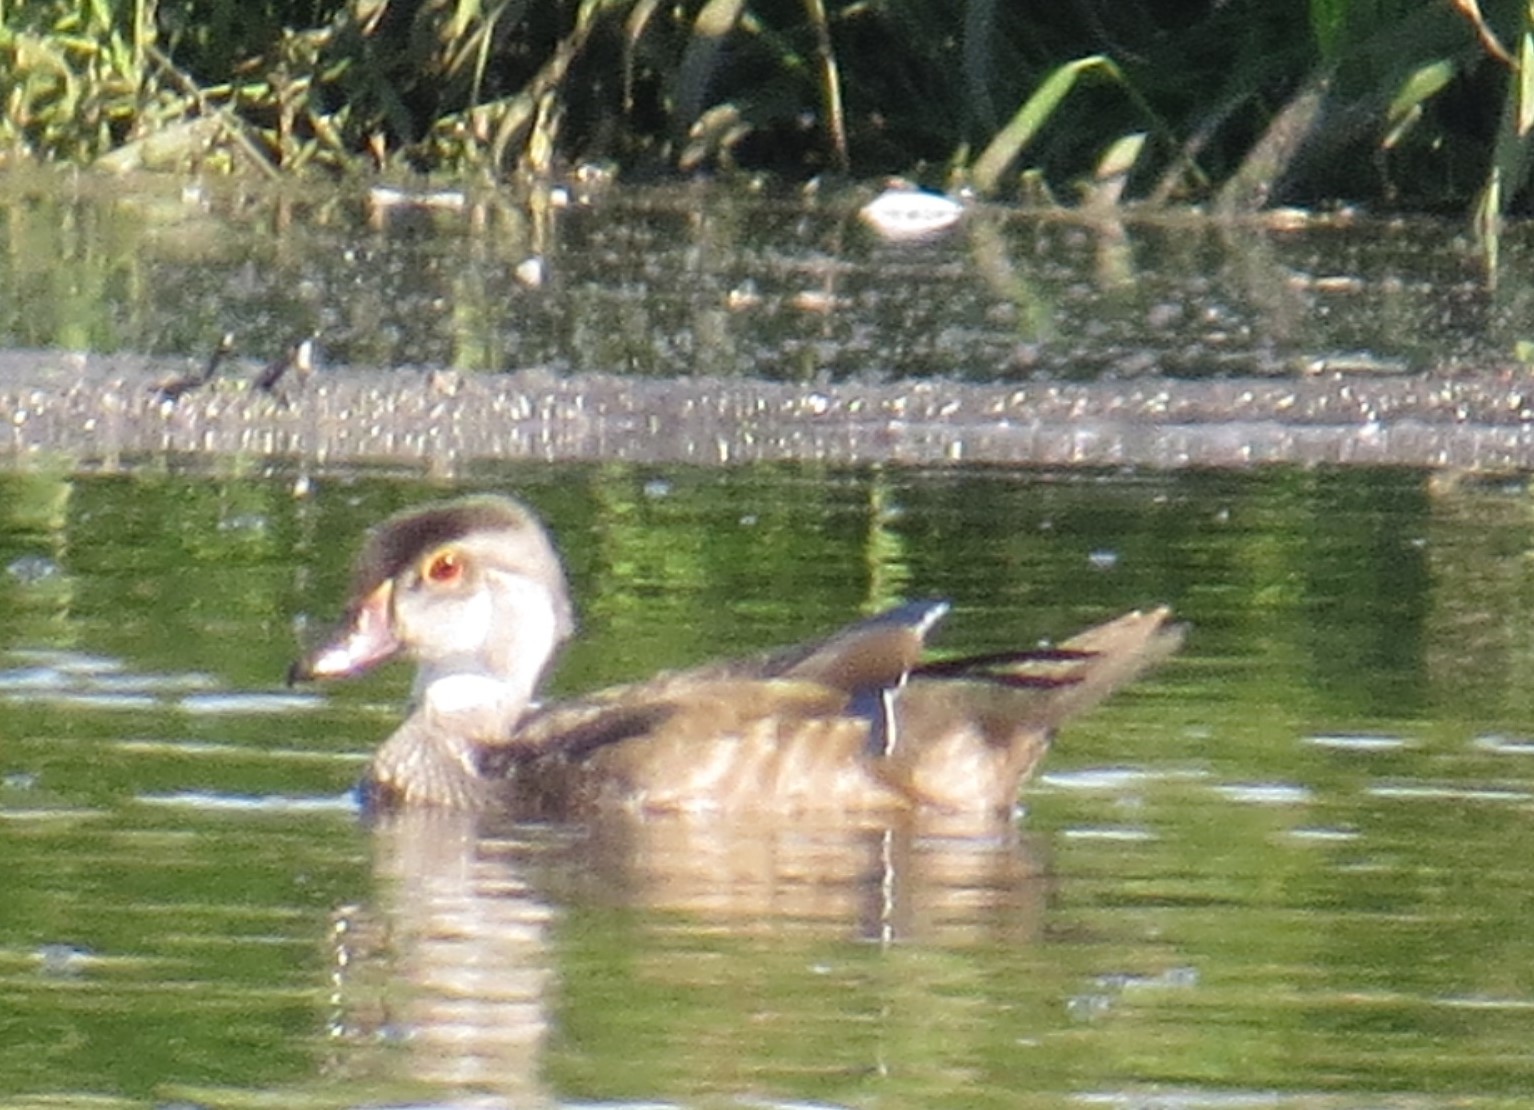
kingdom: Animalia
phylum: Chordata
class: Aves
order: Anseriformes
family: Anatidae
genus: Aix
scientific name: Aix sponsa
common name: Wood duck
